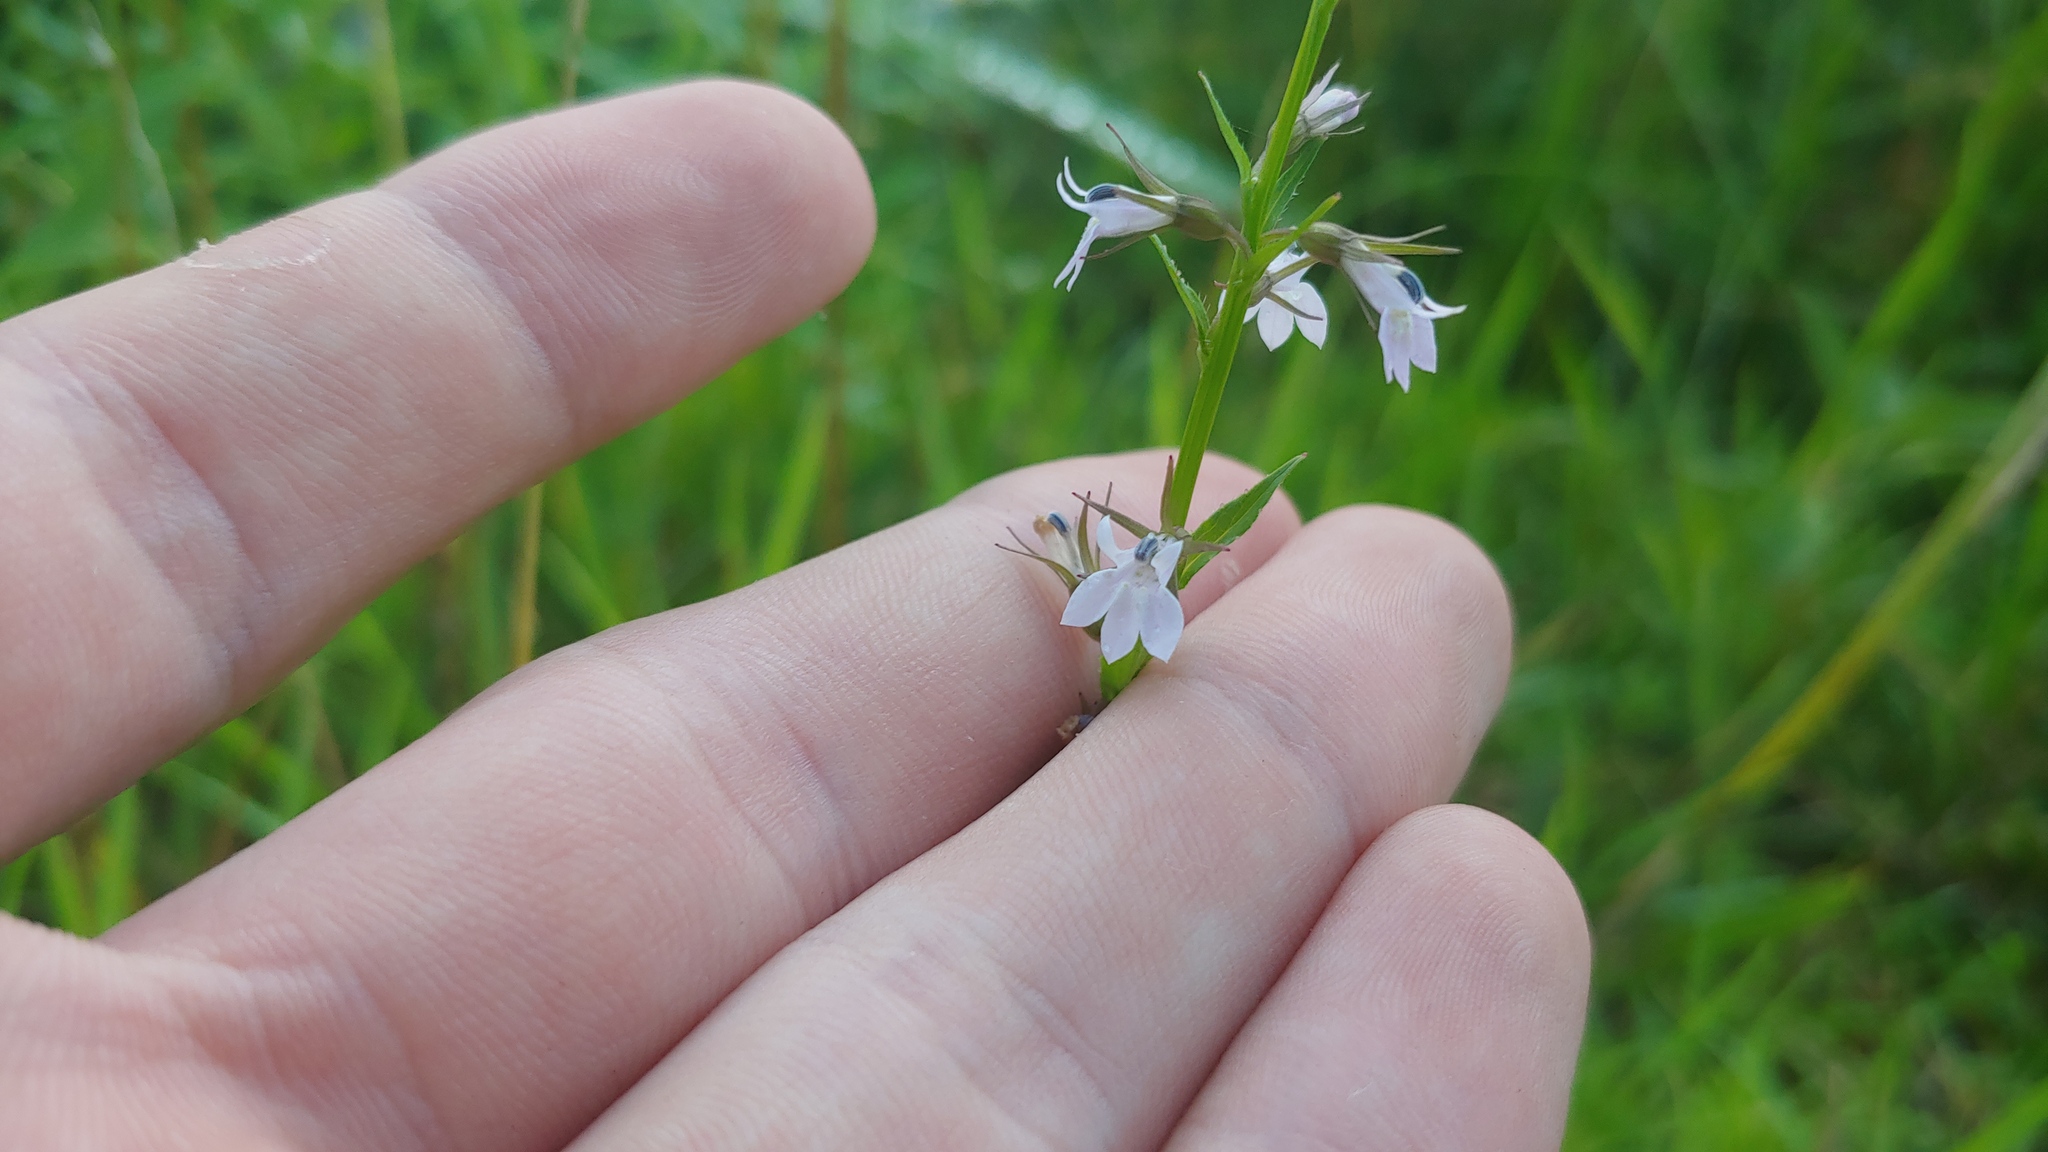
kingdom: Plantae
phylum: Tracheophyta
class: Magnoliopsida
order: Asterales
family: Campanulaceae
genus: Lobelia
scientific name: Lobelia inflata
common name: Indian tobacco
